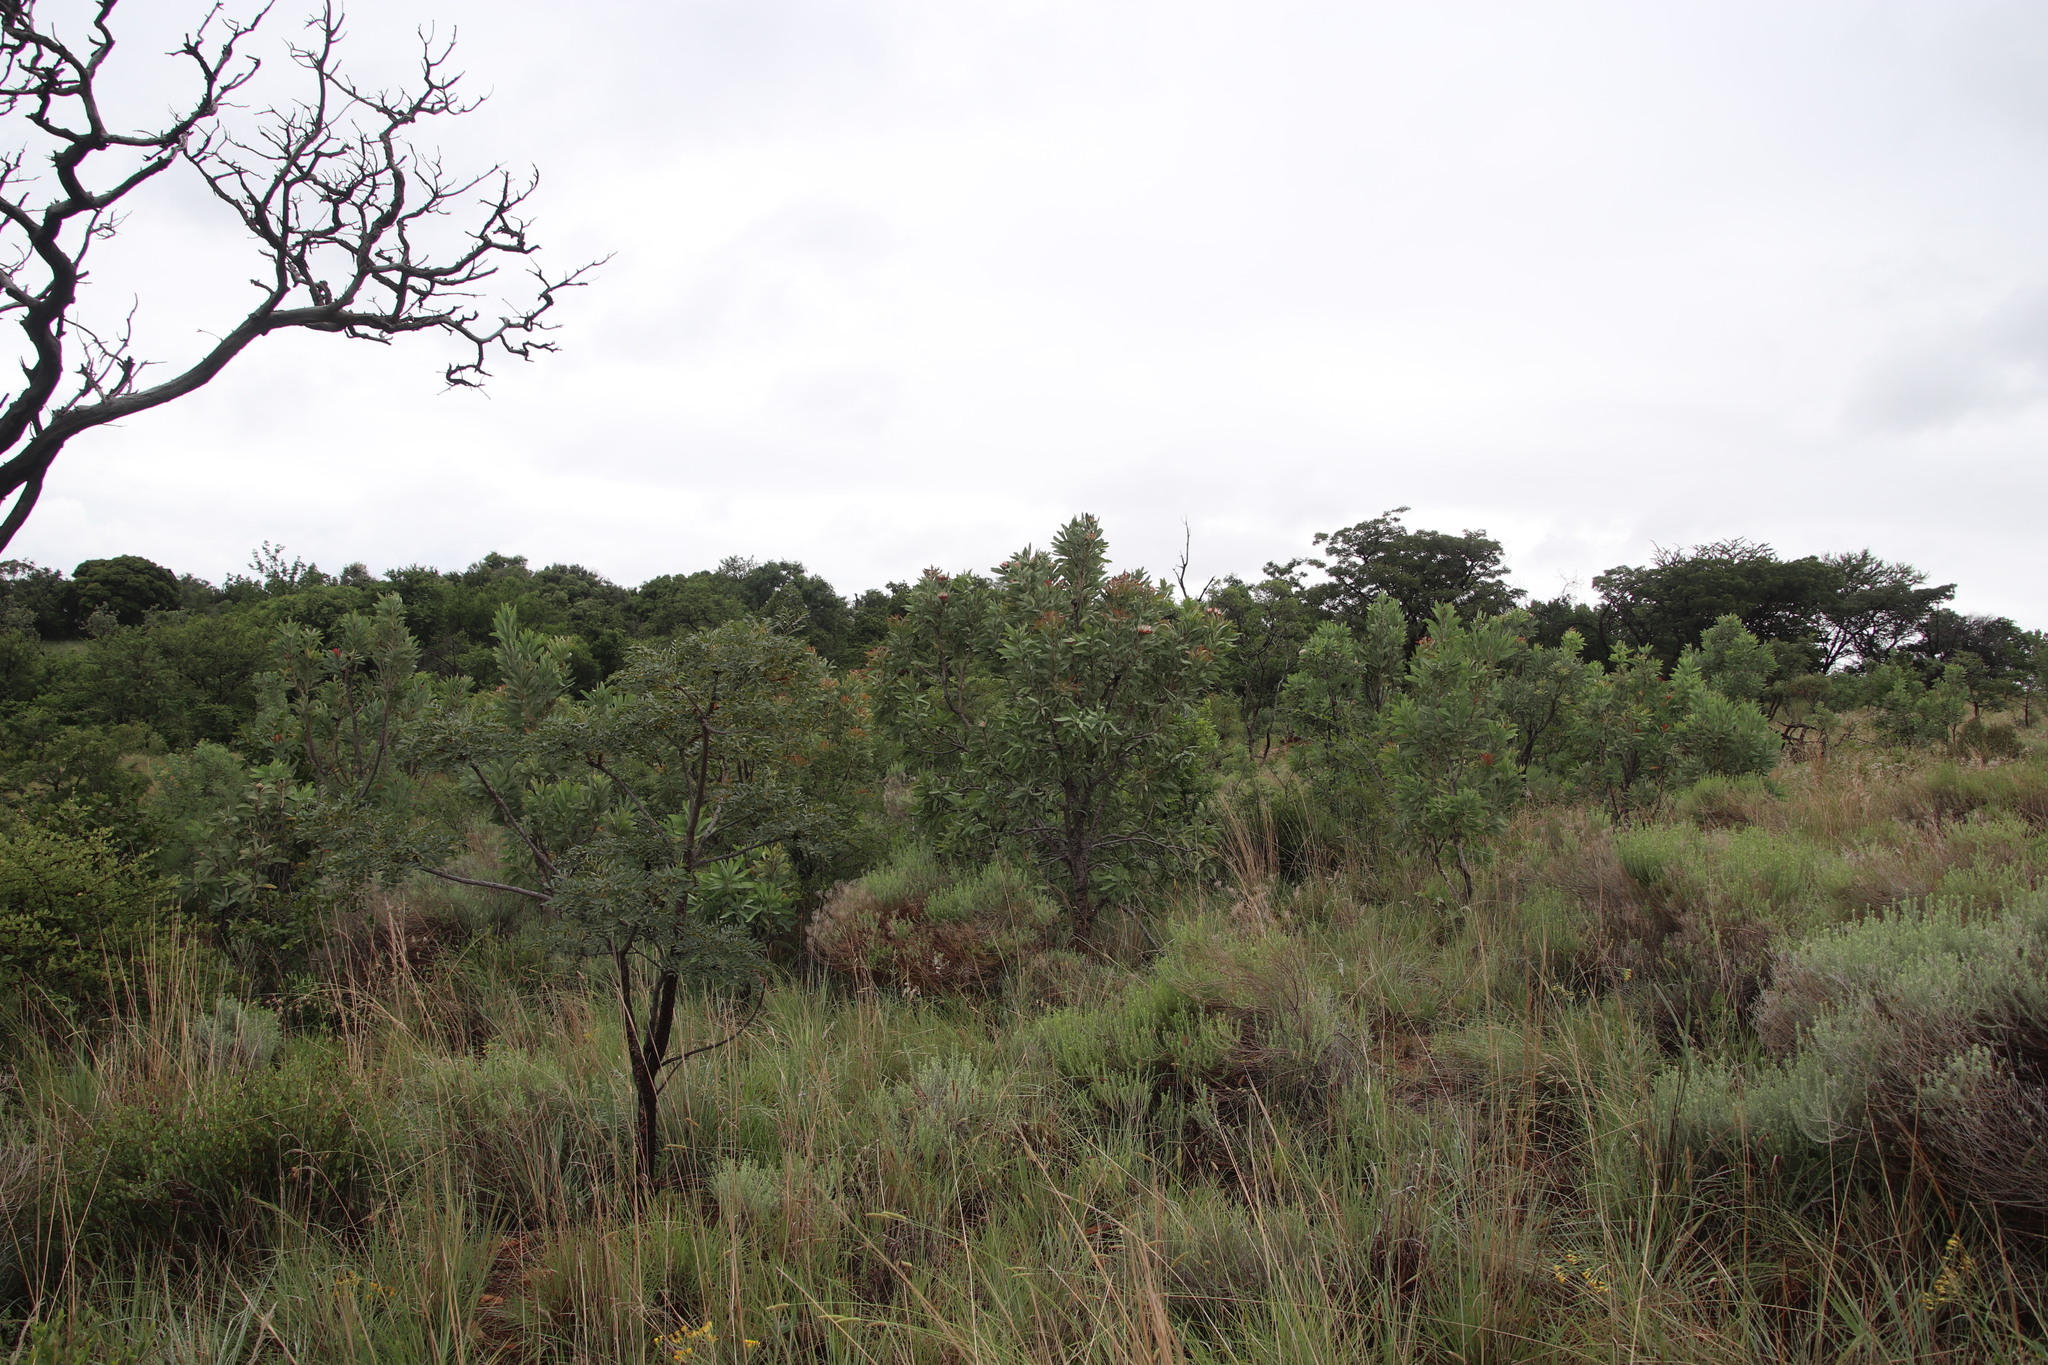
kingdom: Plantae
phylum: Tracheophyta
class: Magnoliopsida
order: Proteales
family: Proteaceae
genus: Protea
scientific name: Protea caffra
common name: Common sugarbush
